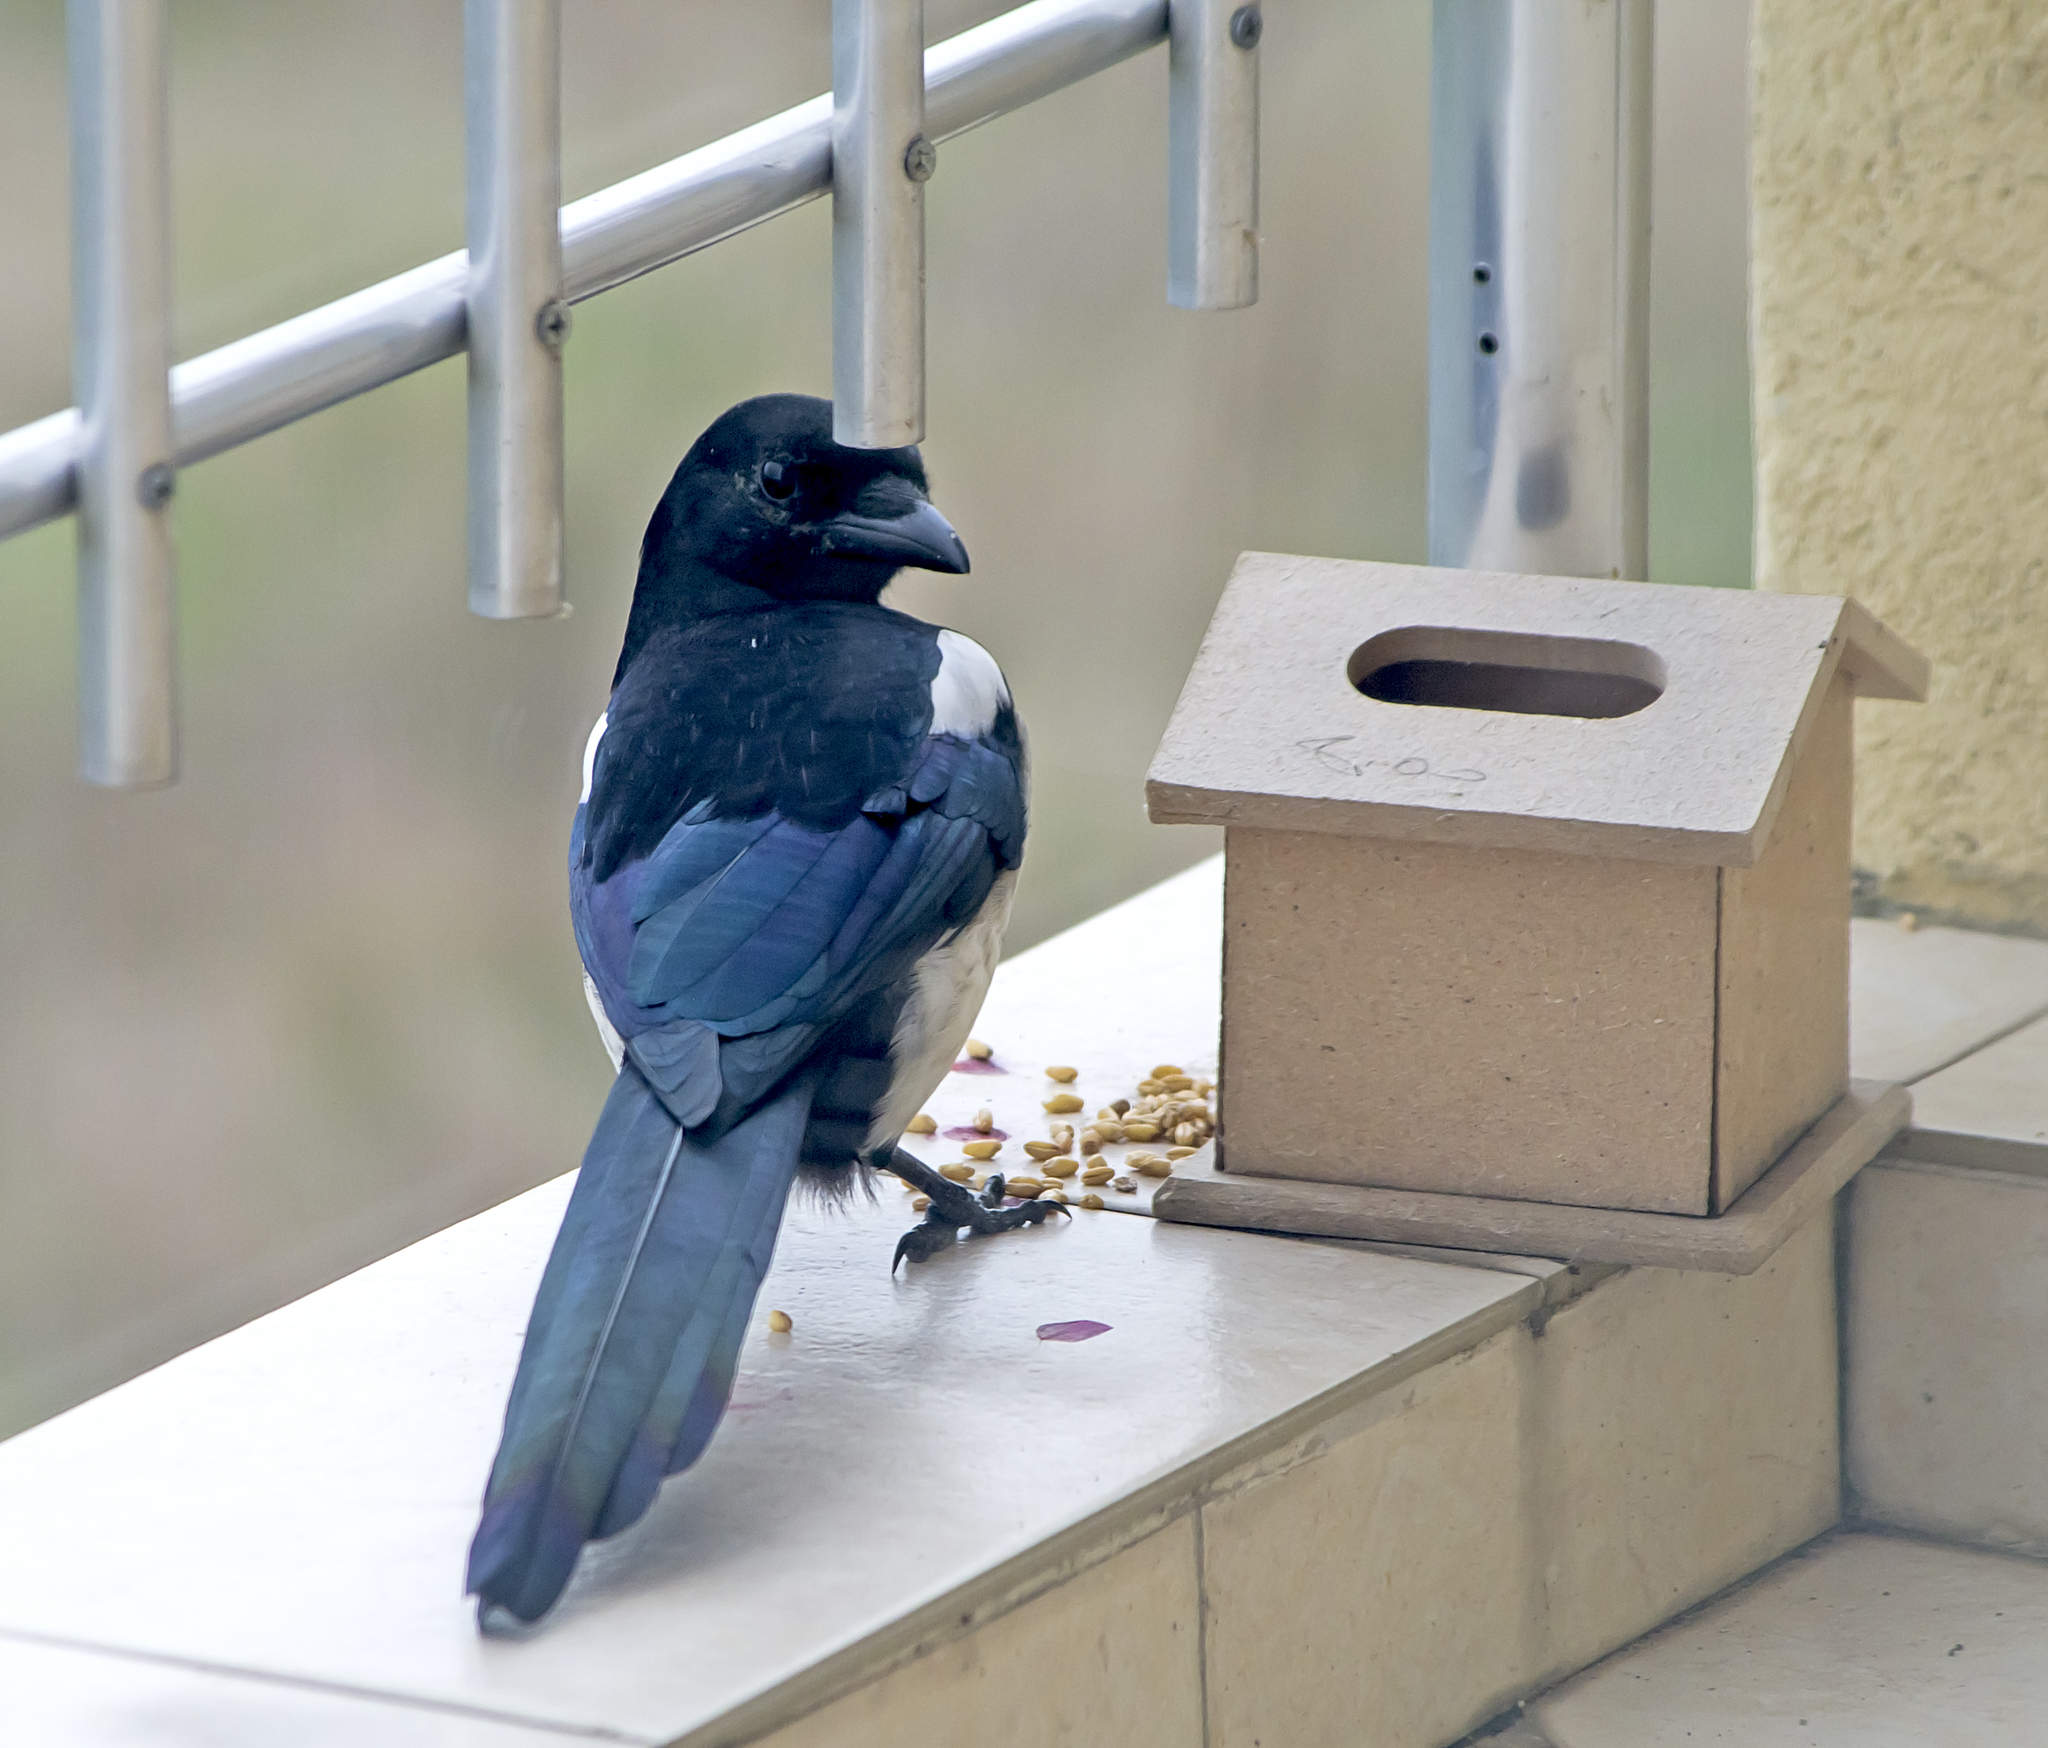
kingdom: Animalia
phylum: Chordata
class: Aves
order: Passeriformes
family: Corvidae
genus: Pica
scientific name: Pica pica
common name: Eurasian magpie
